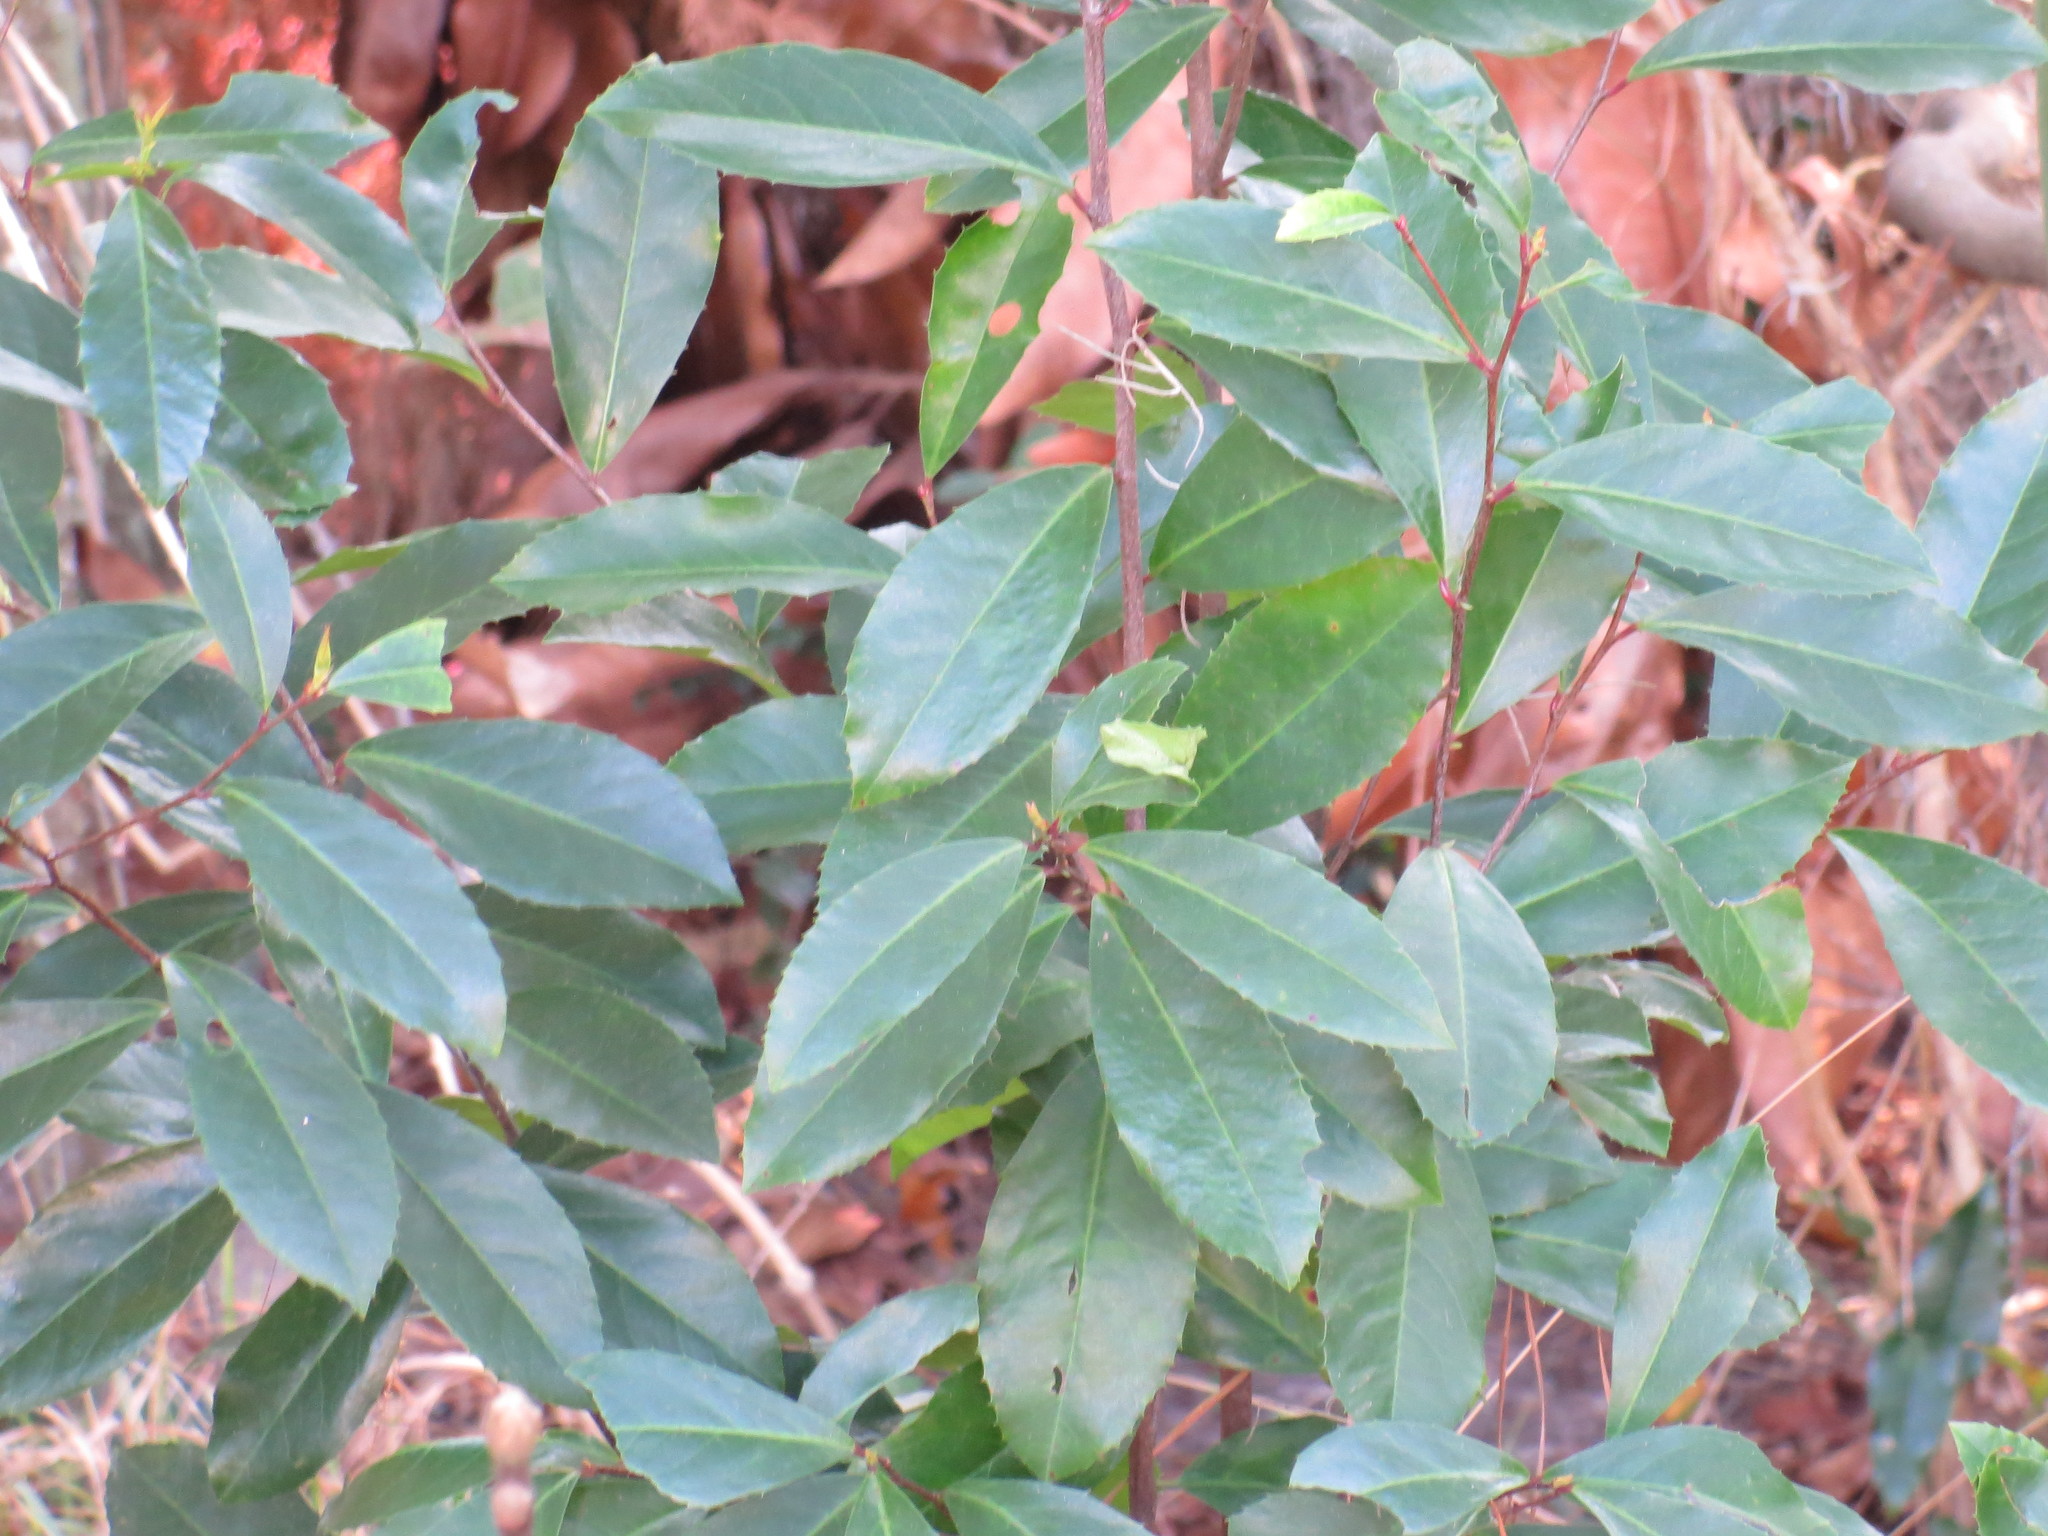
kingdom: Plantae
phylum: Tracheophyta
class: Magnoliopsida
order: Rosales
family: Rosaceae
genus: Prunus
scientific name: Prunus caroliniana
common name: Carolina laurel cherry
